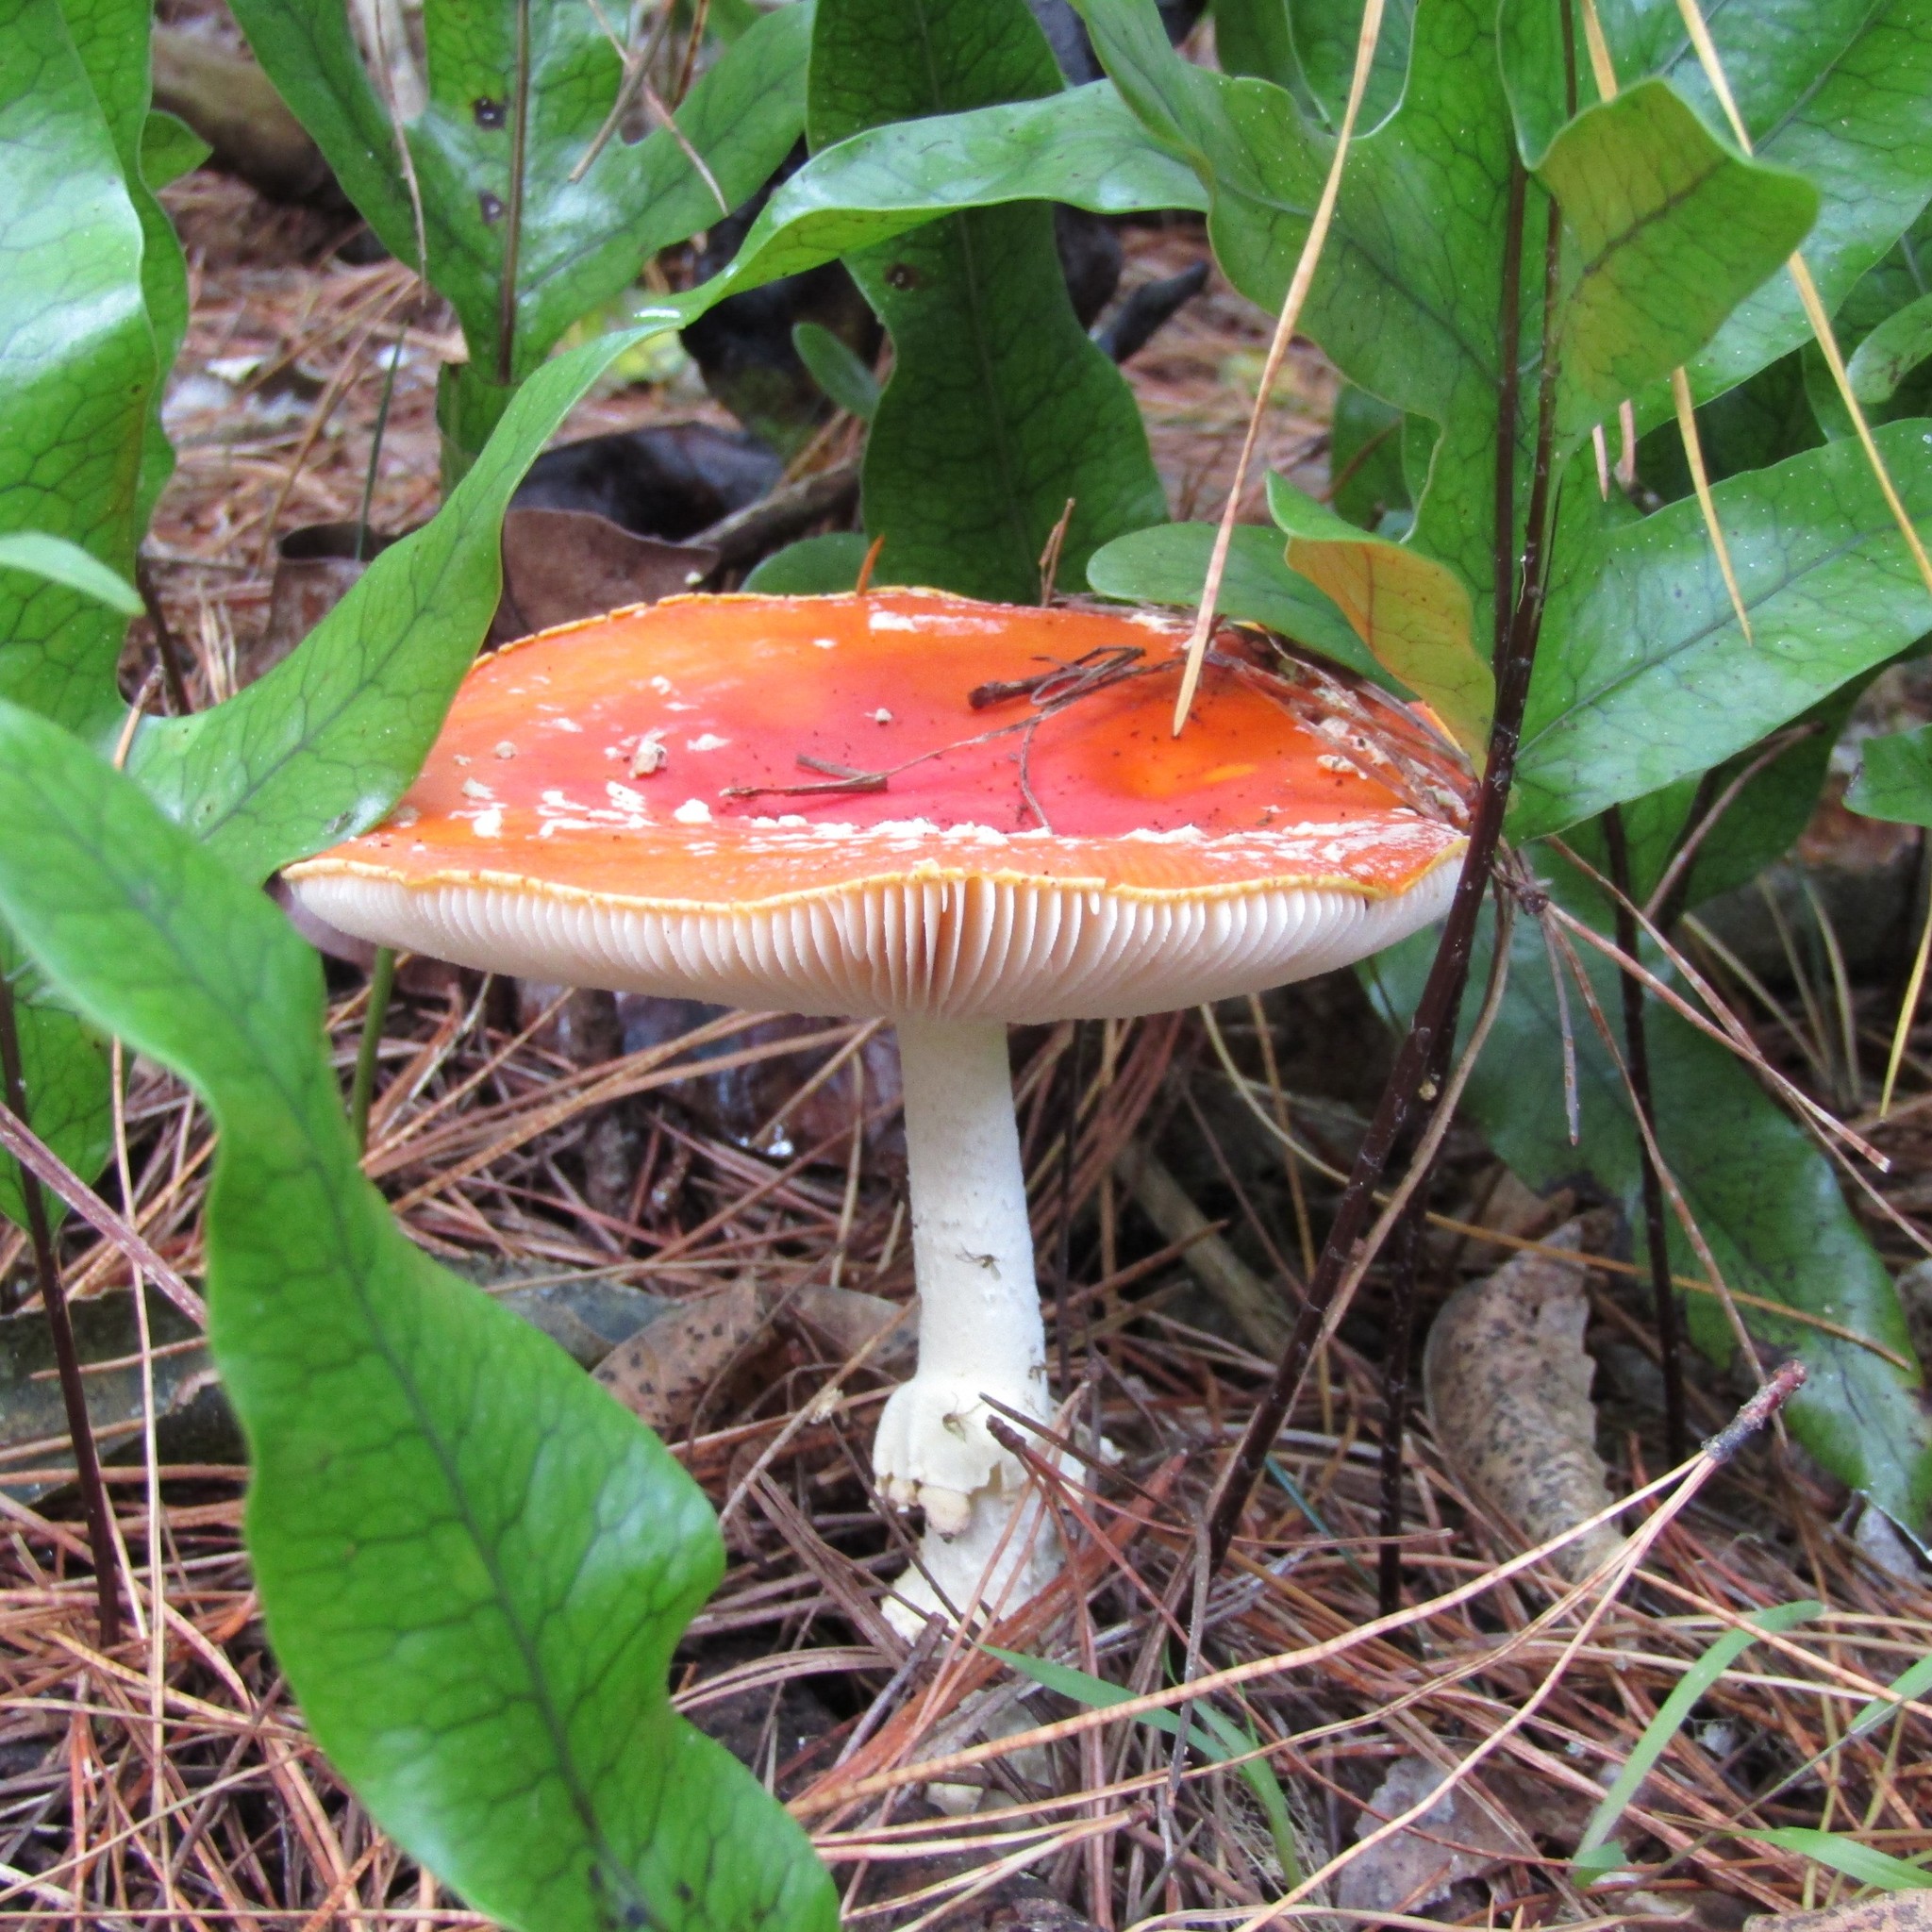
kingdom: Fungi
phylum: Basidiomycota
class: Agaricomycetes
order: Agaricales
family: Amanitaceae
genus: Amanita
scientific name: Amanita muscaria
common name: Fly agaric
